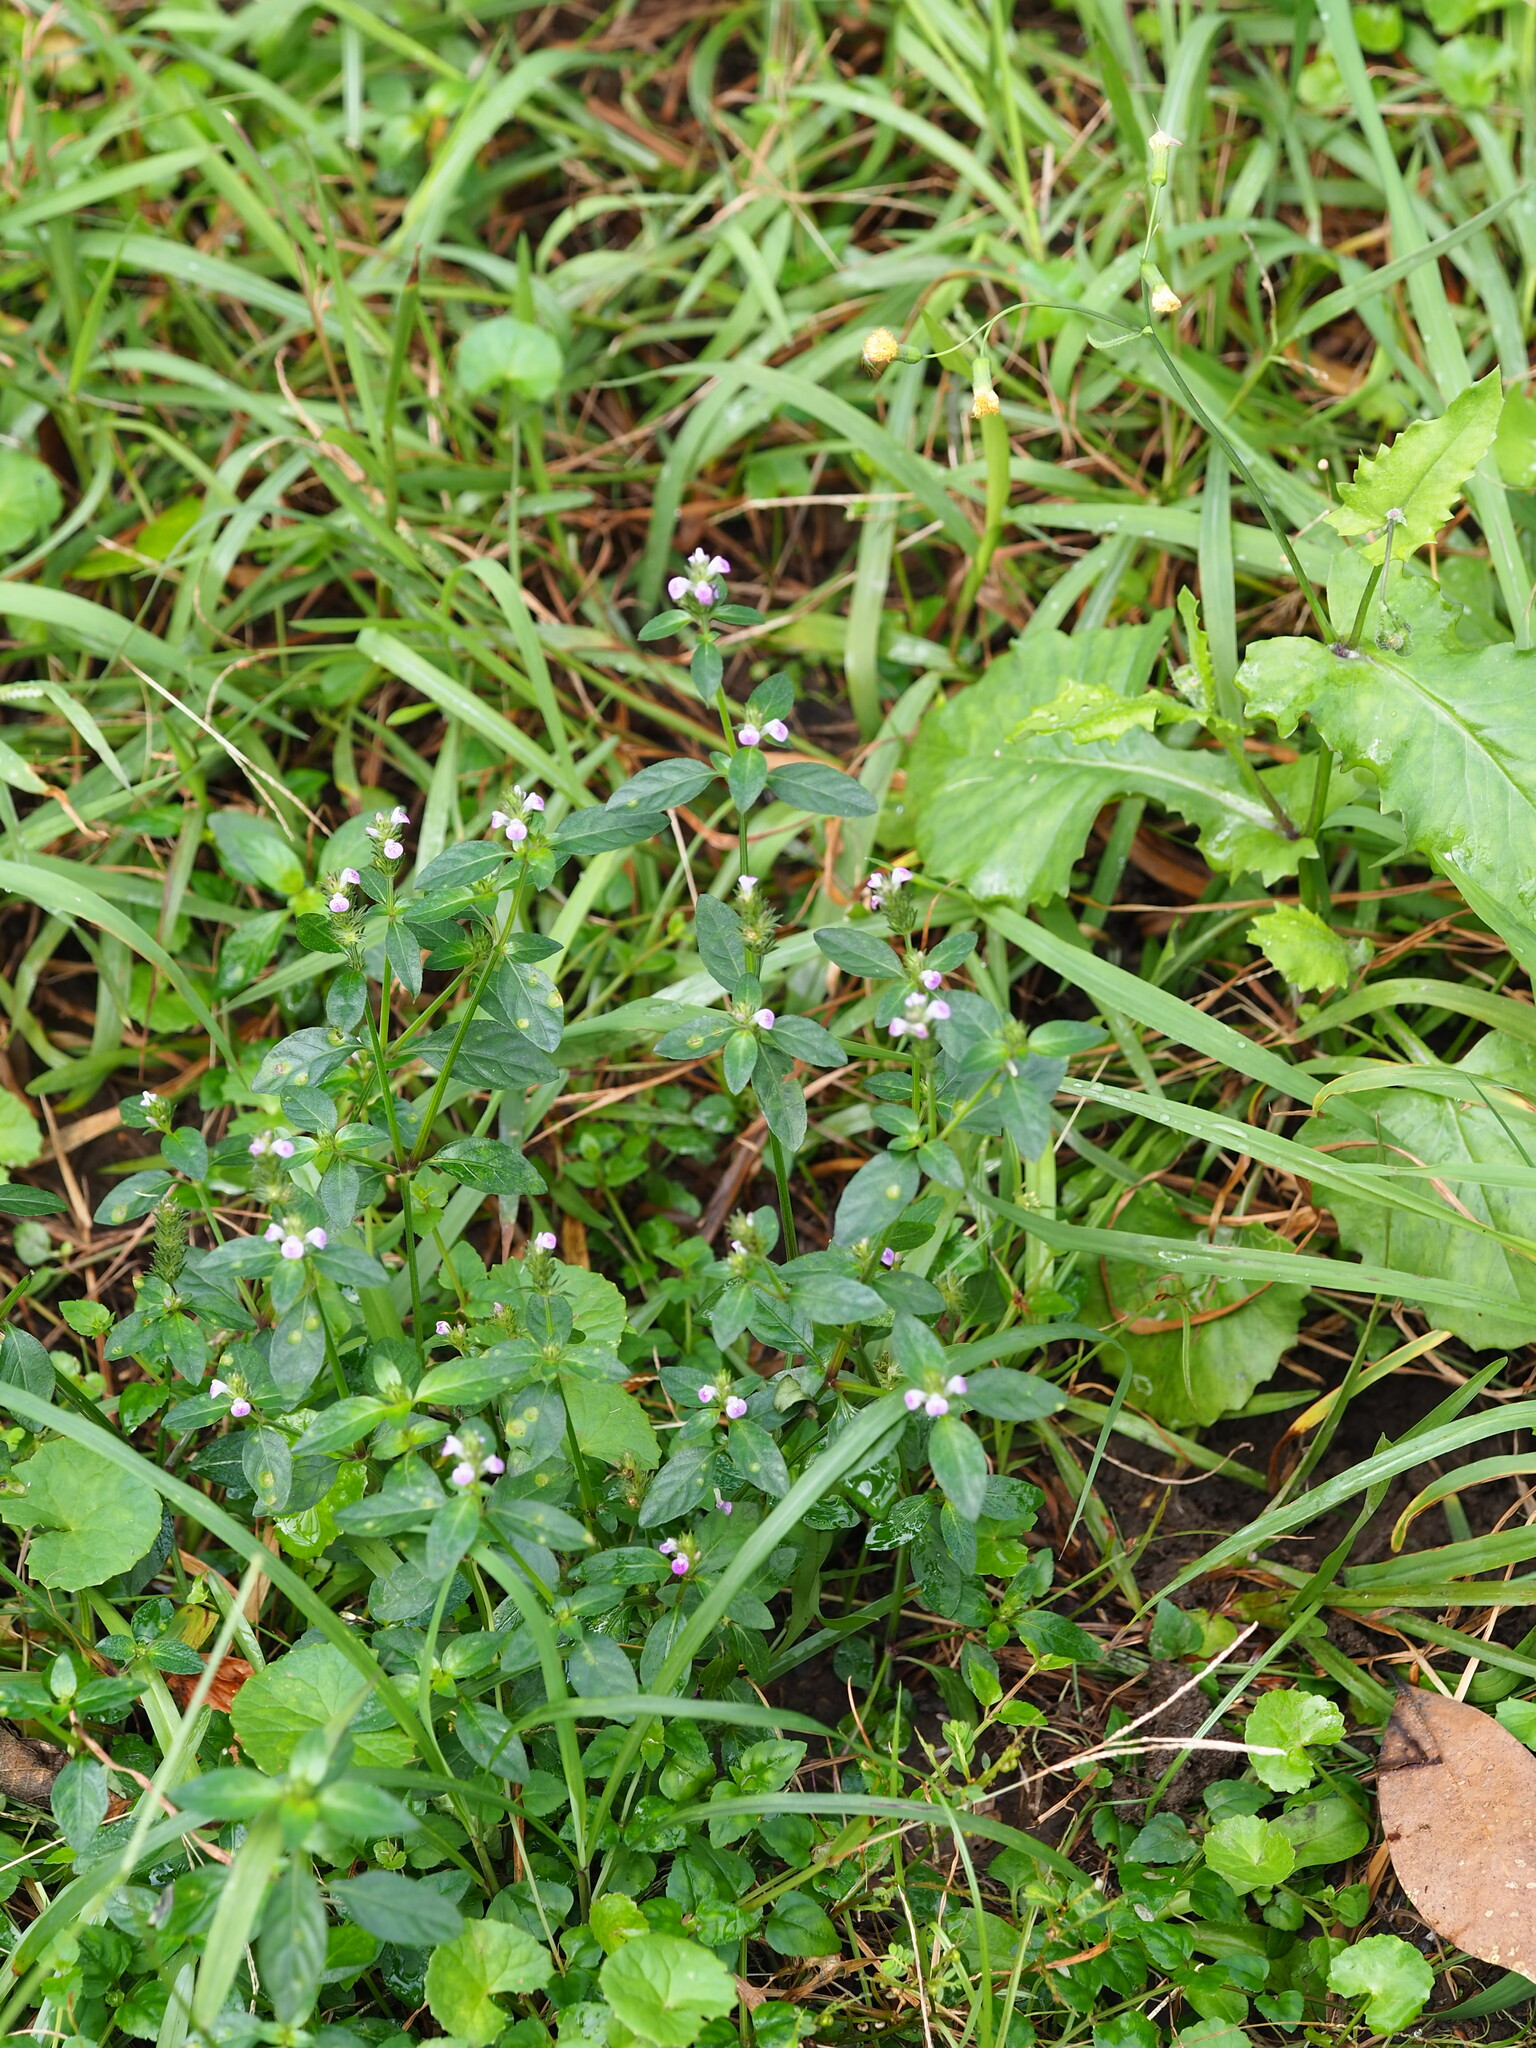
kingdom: Plantae
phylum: Tracheophyta
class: Magnoliopsida
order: Lamiales
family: Acanthaceae
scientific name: Acanthaceae
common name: Acanthaceae
